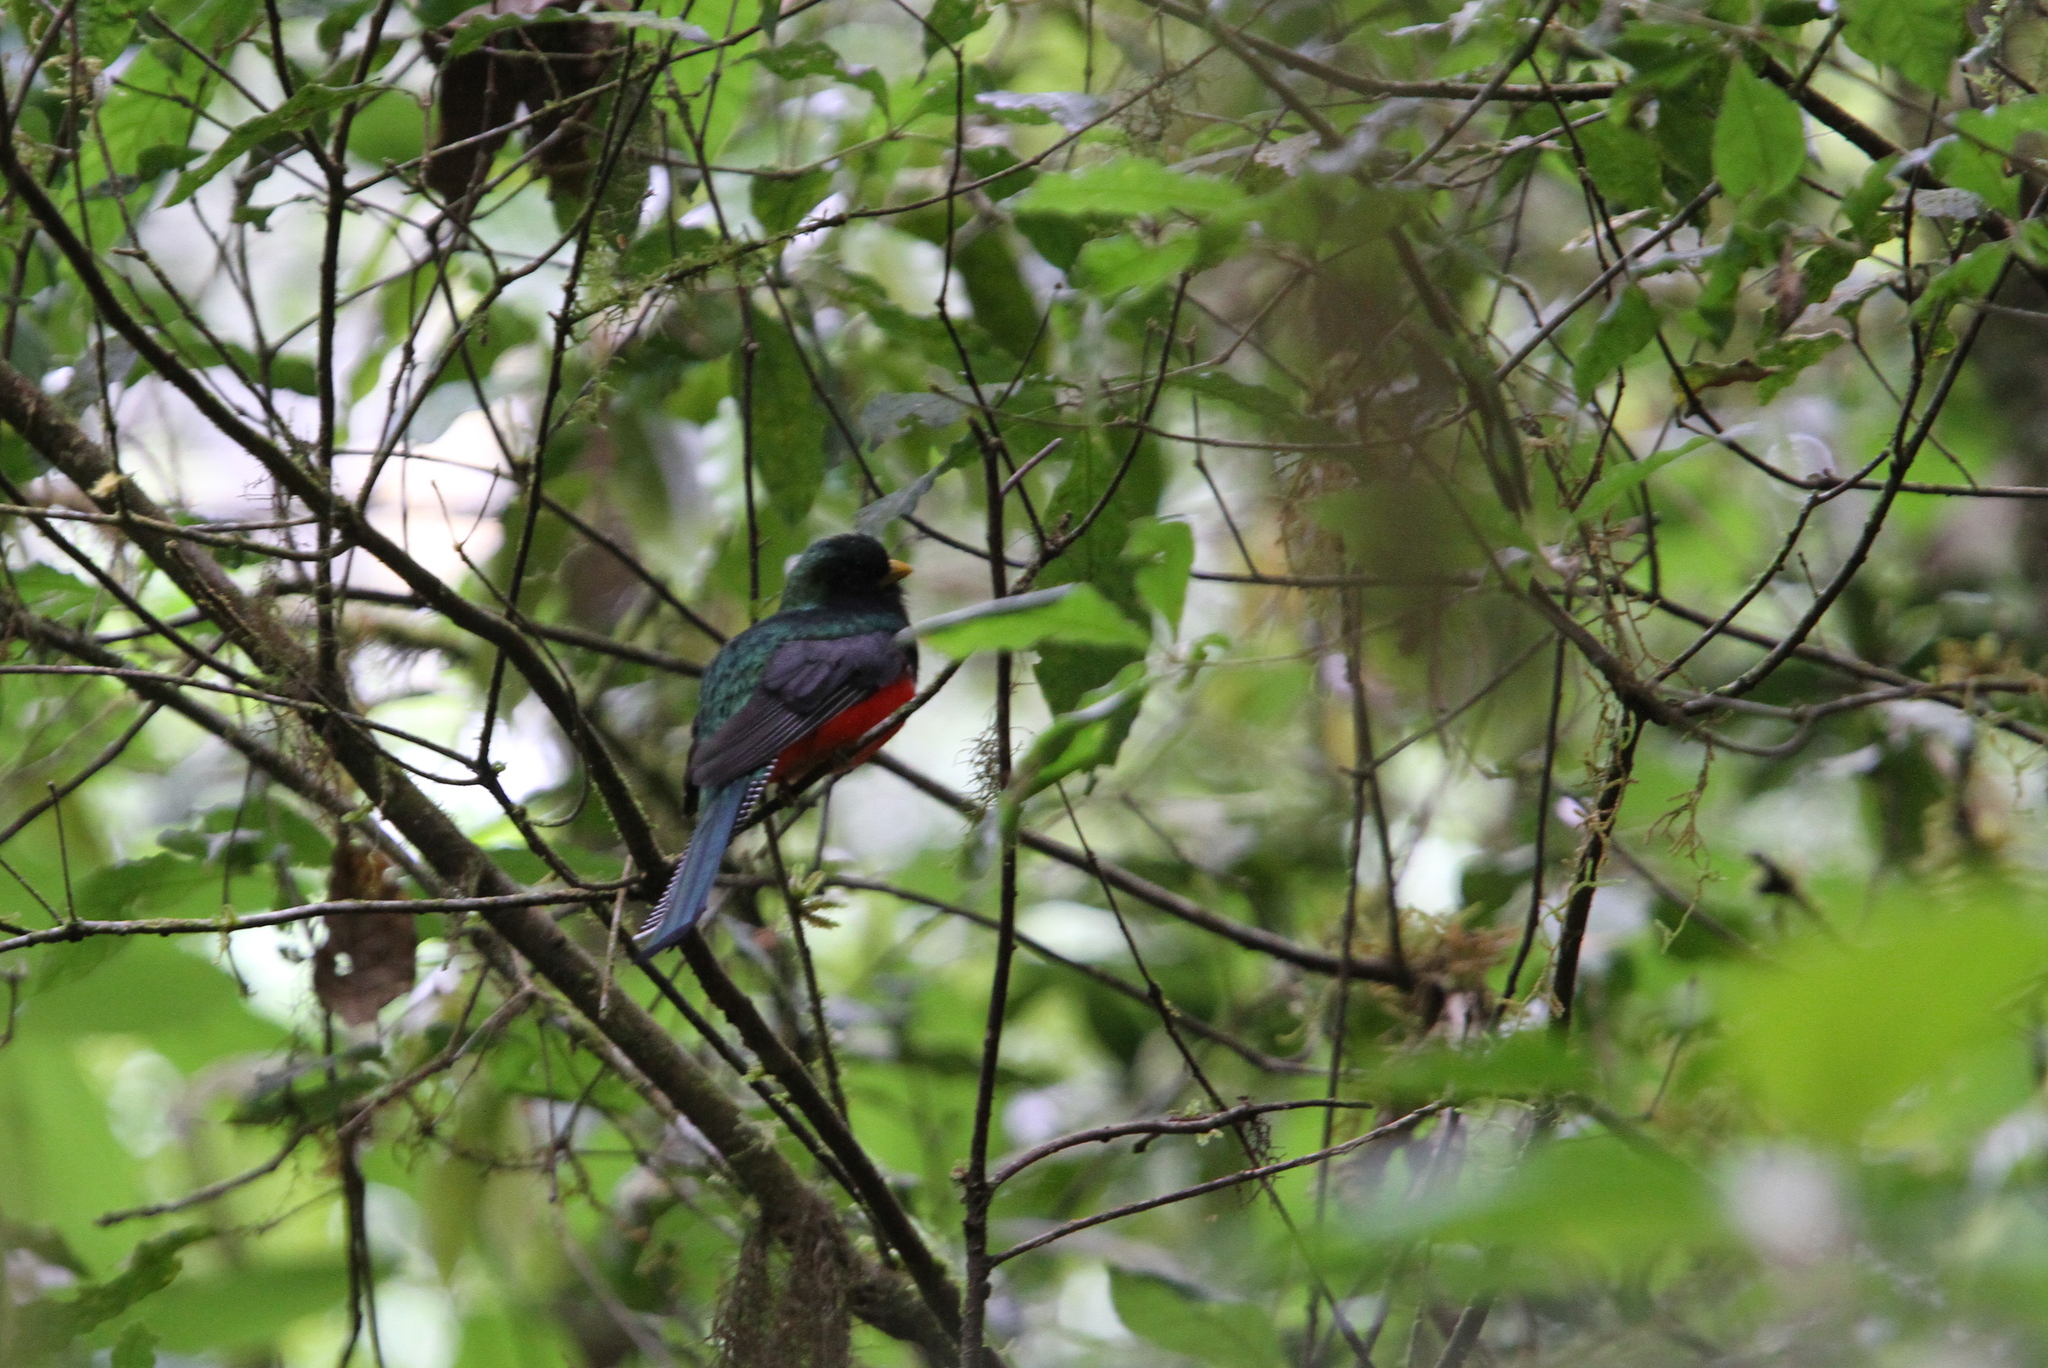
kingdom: Animalia
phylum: Chordata
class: Aves
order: Trogoniformes
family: Trogonidae
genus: Trogon
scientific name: Trogon collaris
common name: Collared trogon
